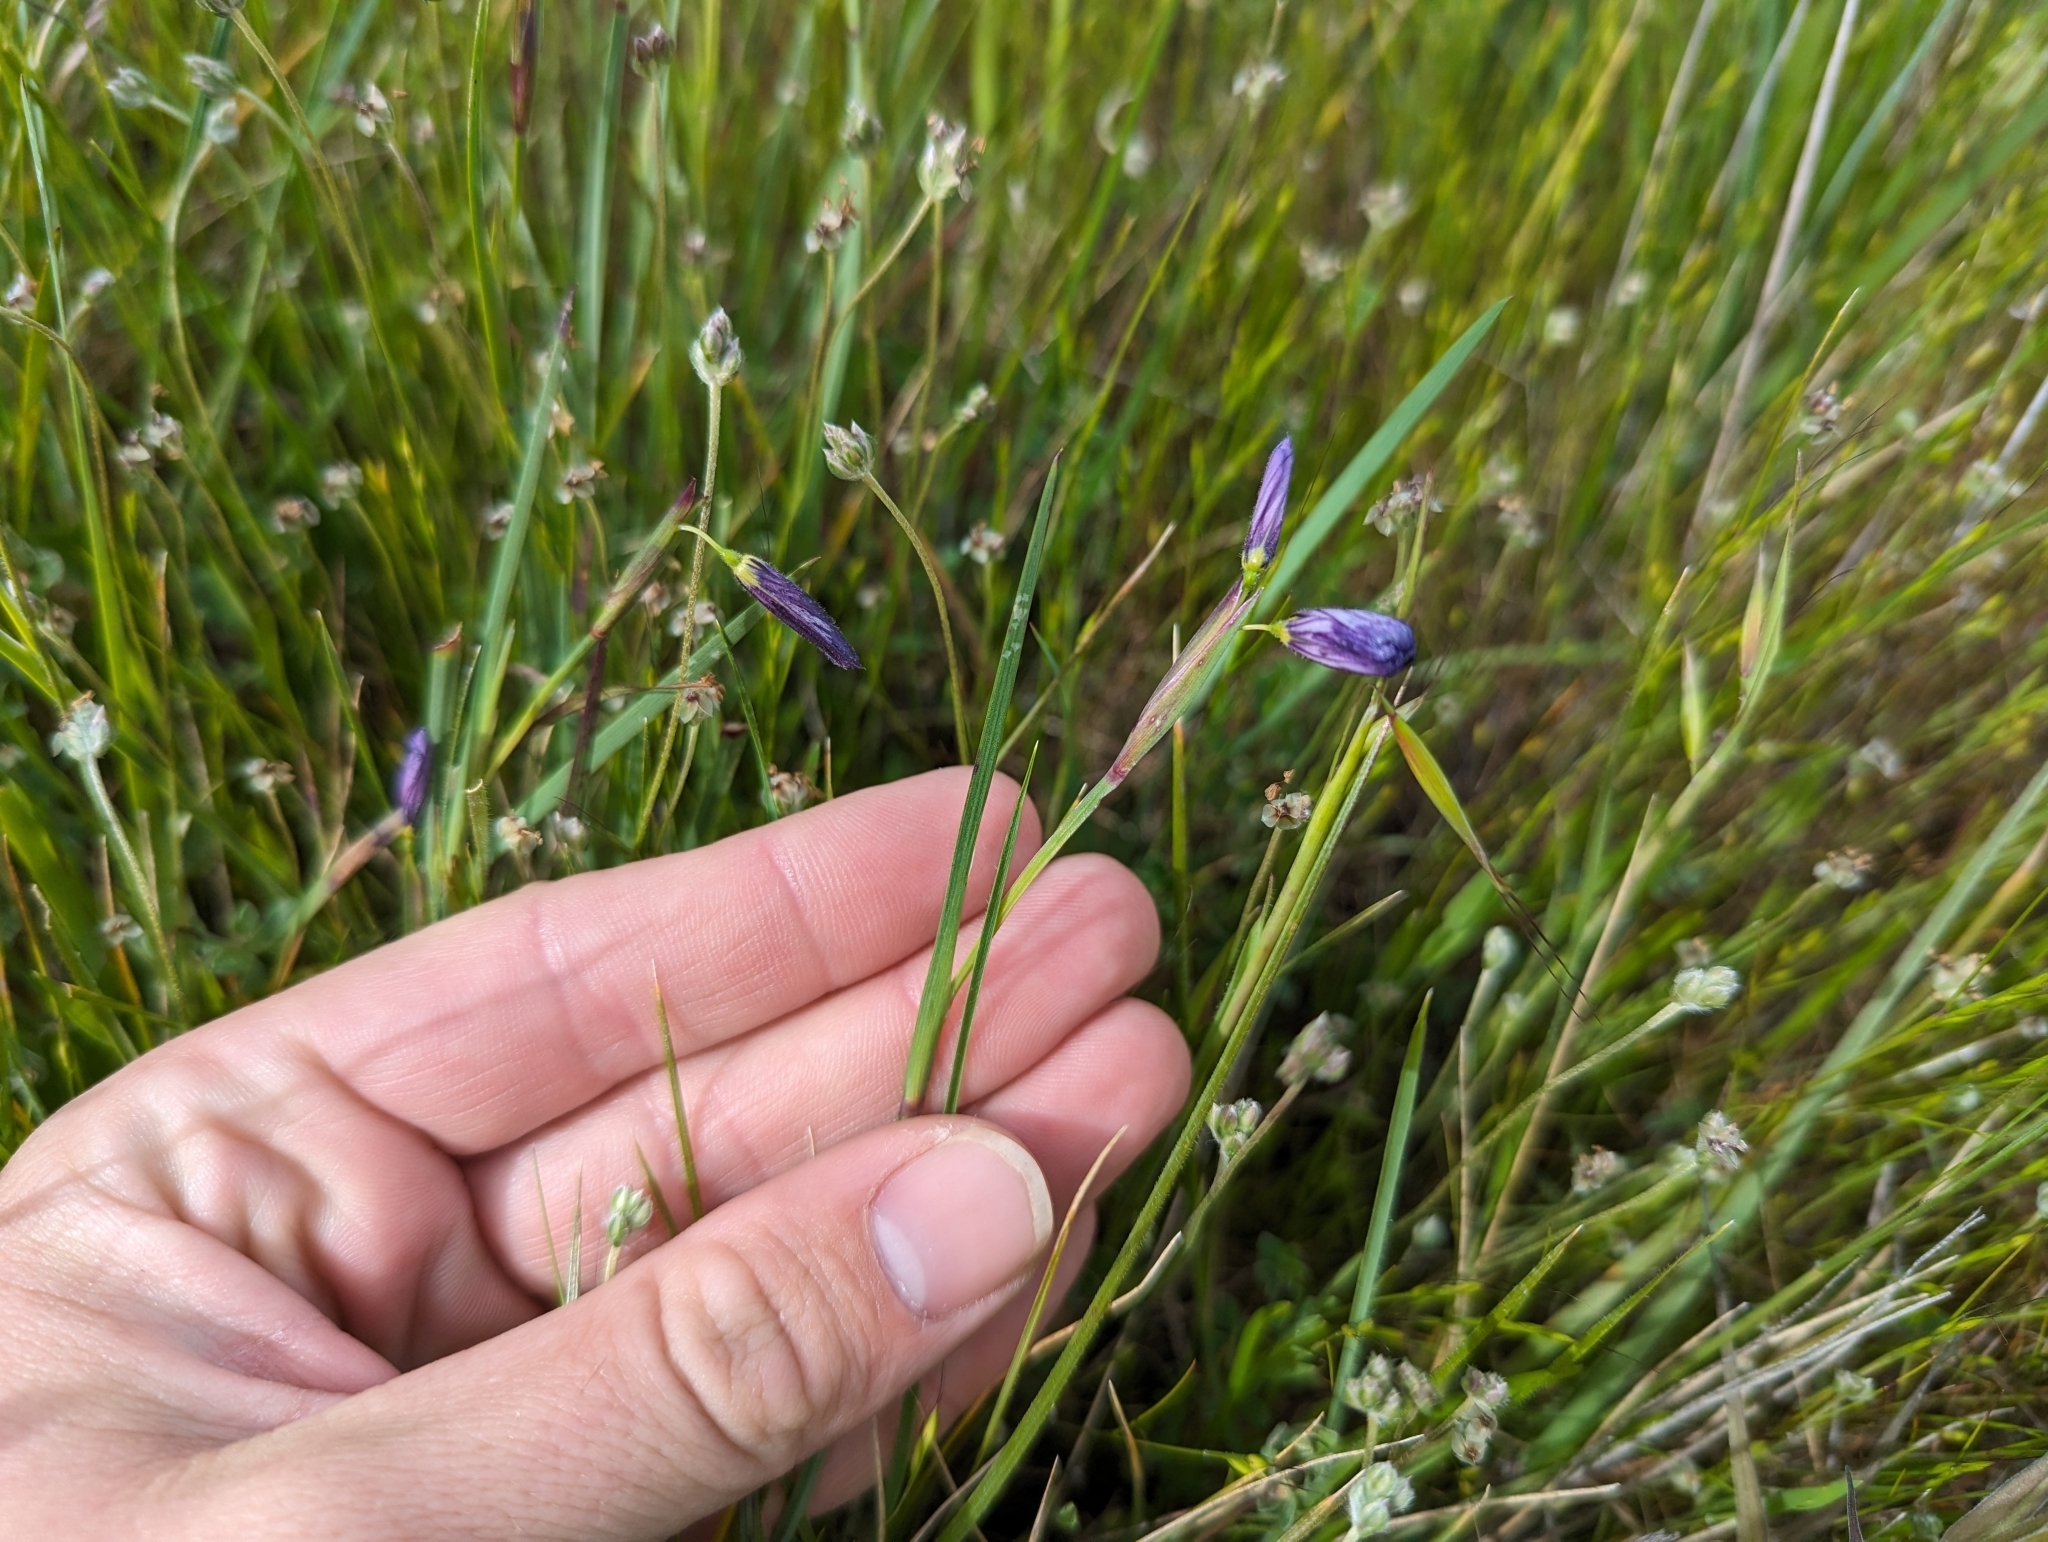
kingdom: Plantae
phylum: Tracheophyta
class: Liliopsida
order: Asparagales
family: Iridaceae
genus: Sisyrinchium
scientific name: Sisyrinchium bellum
